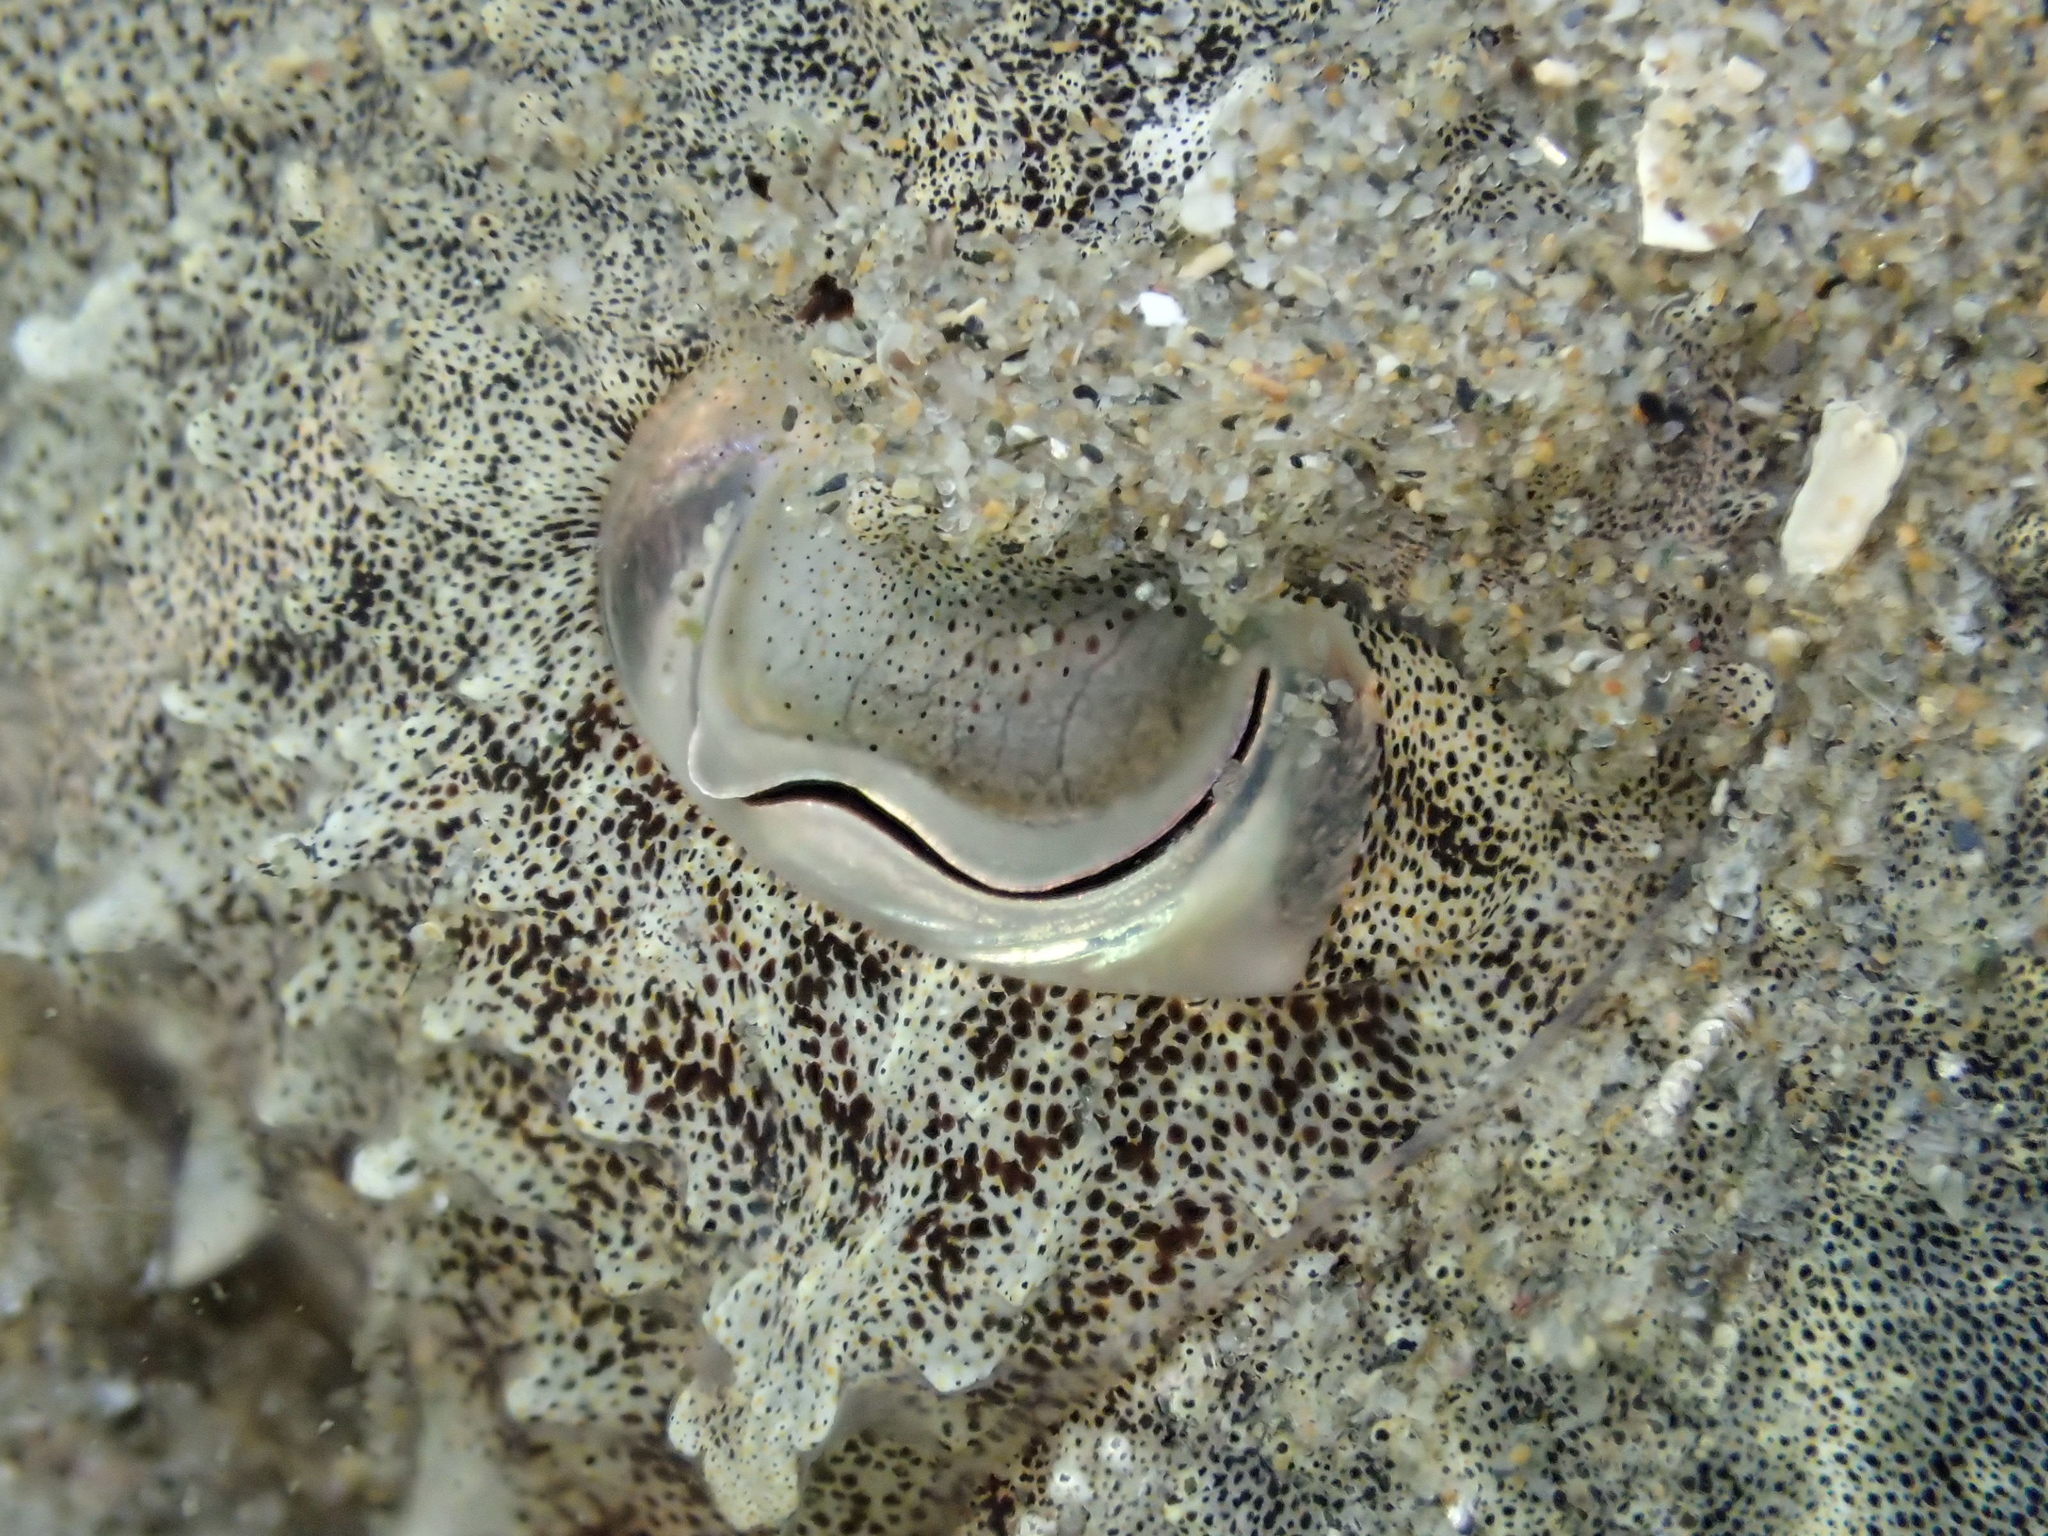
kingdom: Animalia
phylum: Mollusca
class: Cephalopoda
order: Sepiida
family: Sepiidae
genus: Sepia
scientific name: Sepia officinalis
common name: Common cuttlefish
